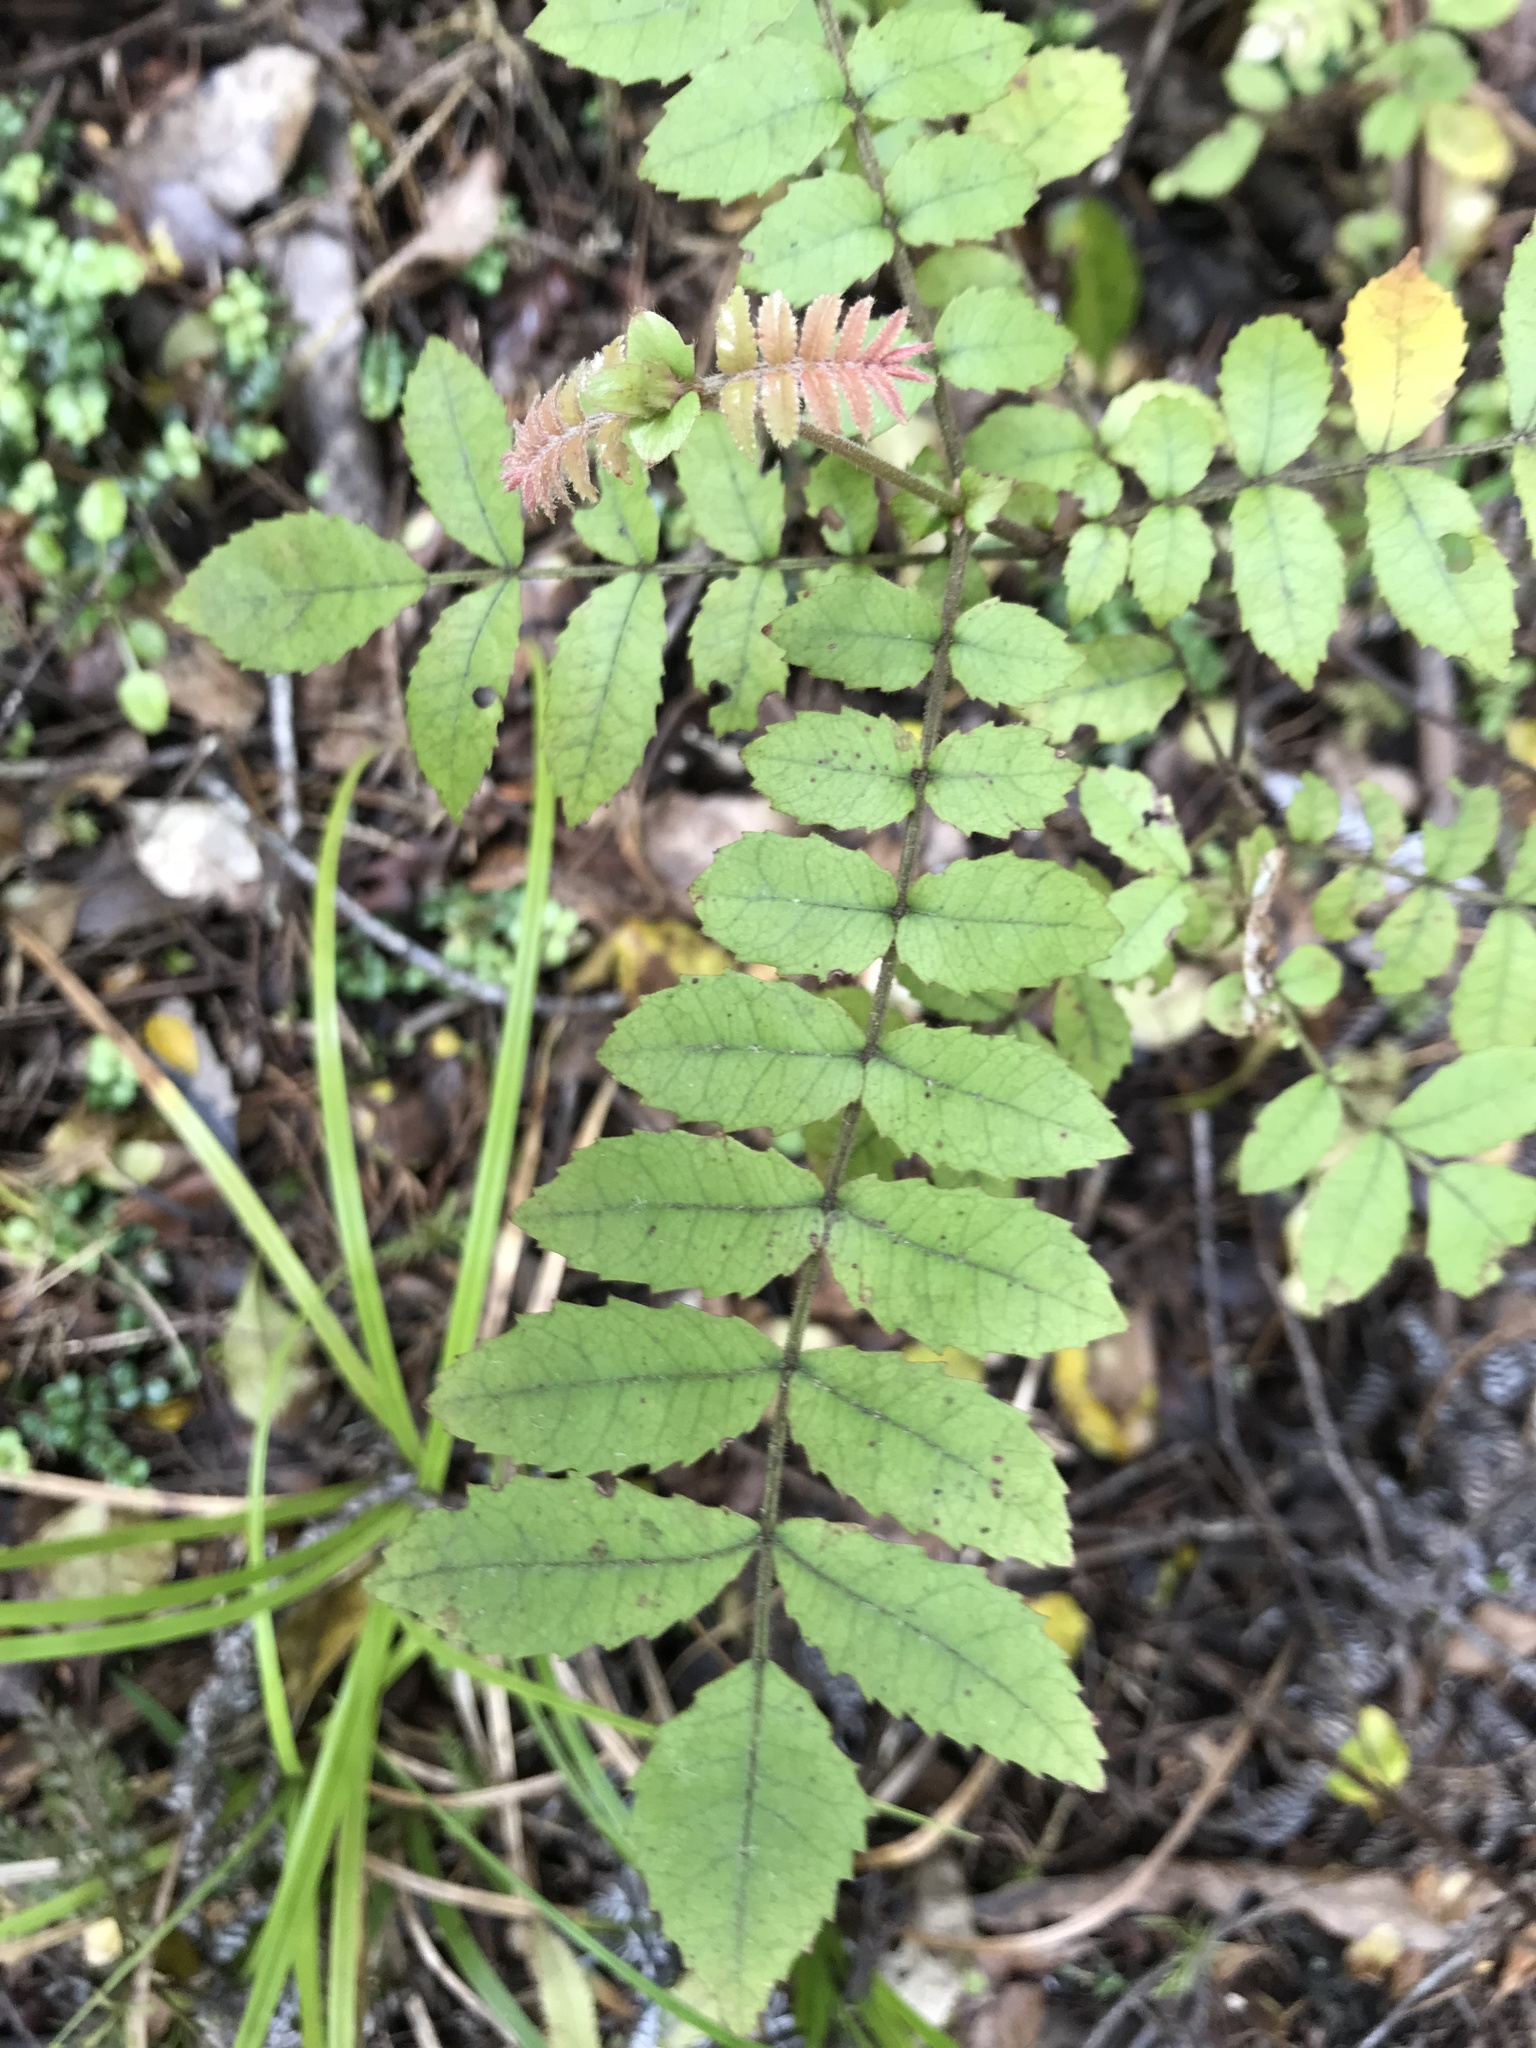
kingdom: Plantae
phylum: Tracheophyta
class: Magnoliopsida
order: Oxalidales
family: Cunoniaceae
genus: Ackama
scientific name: Ackama rosifolia
